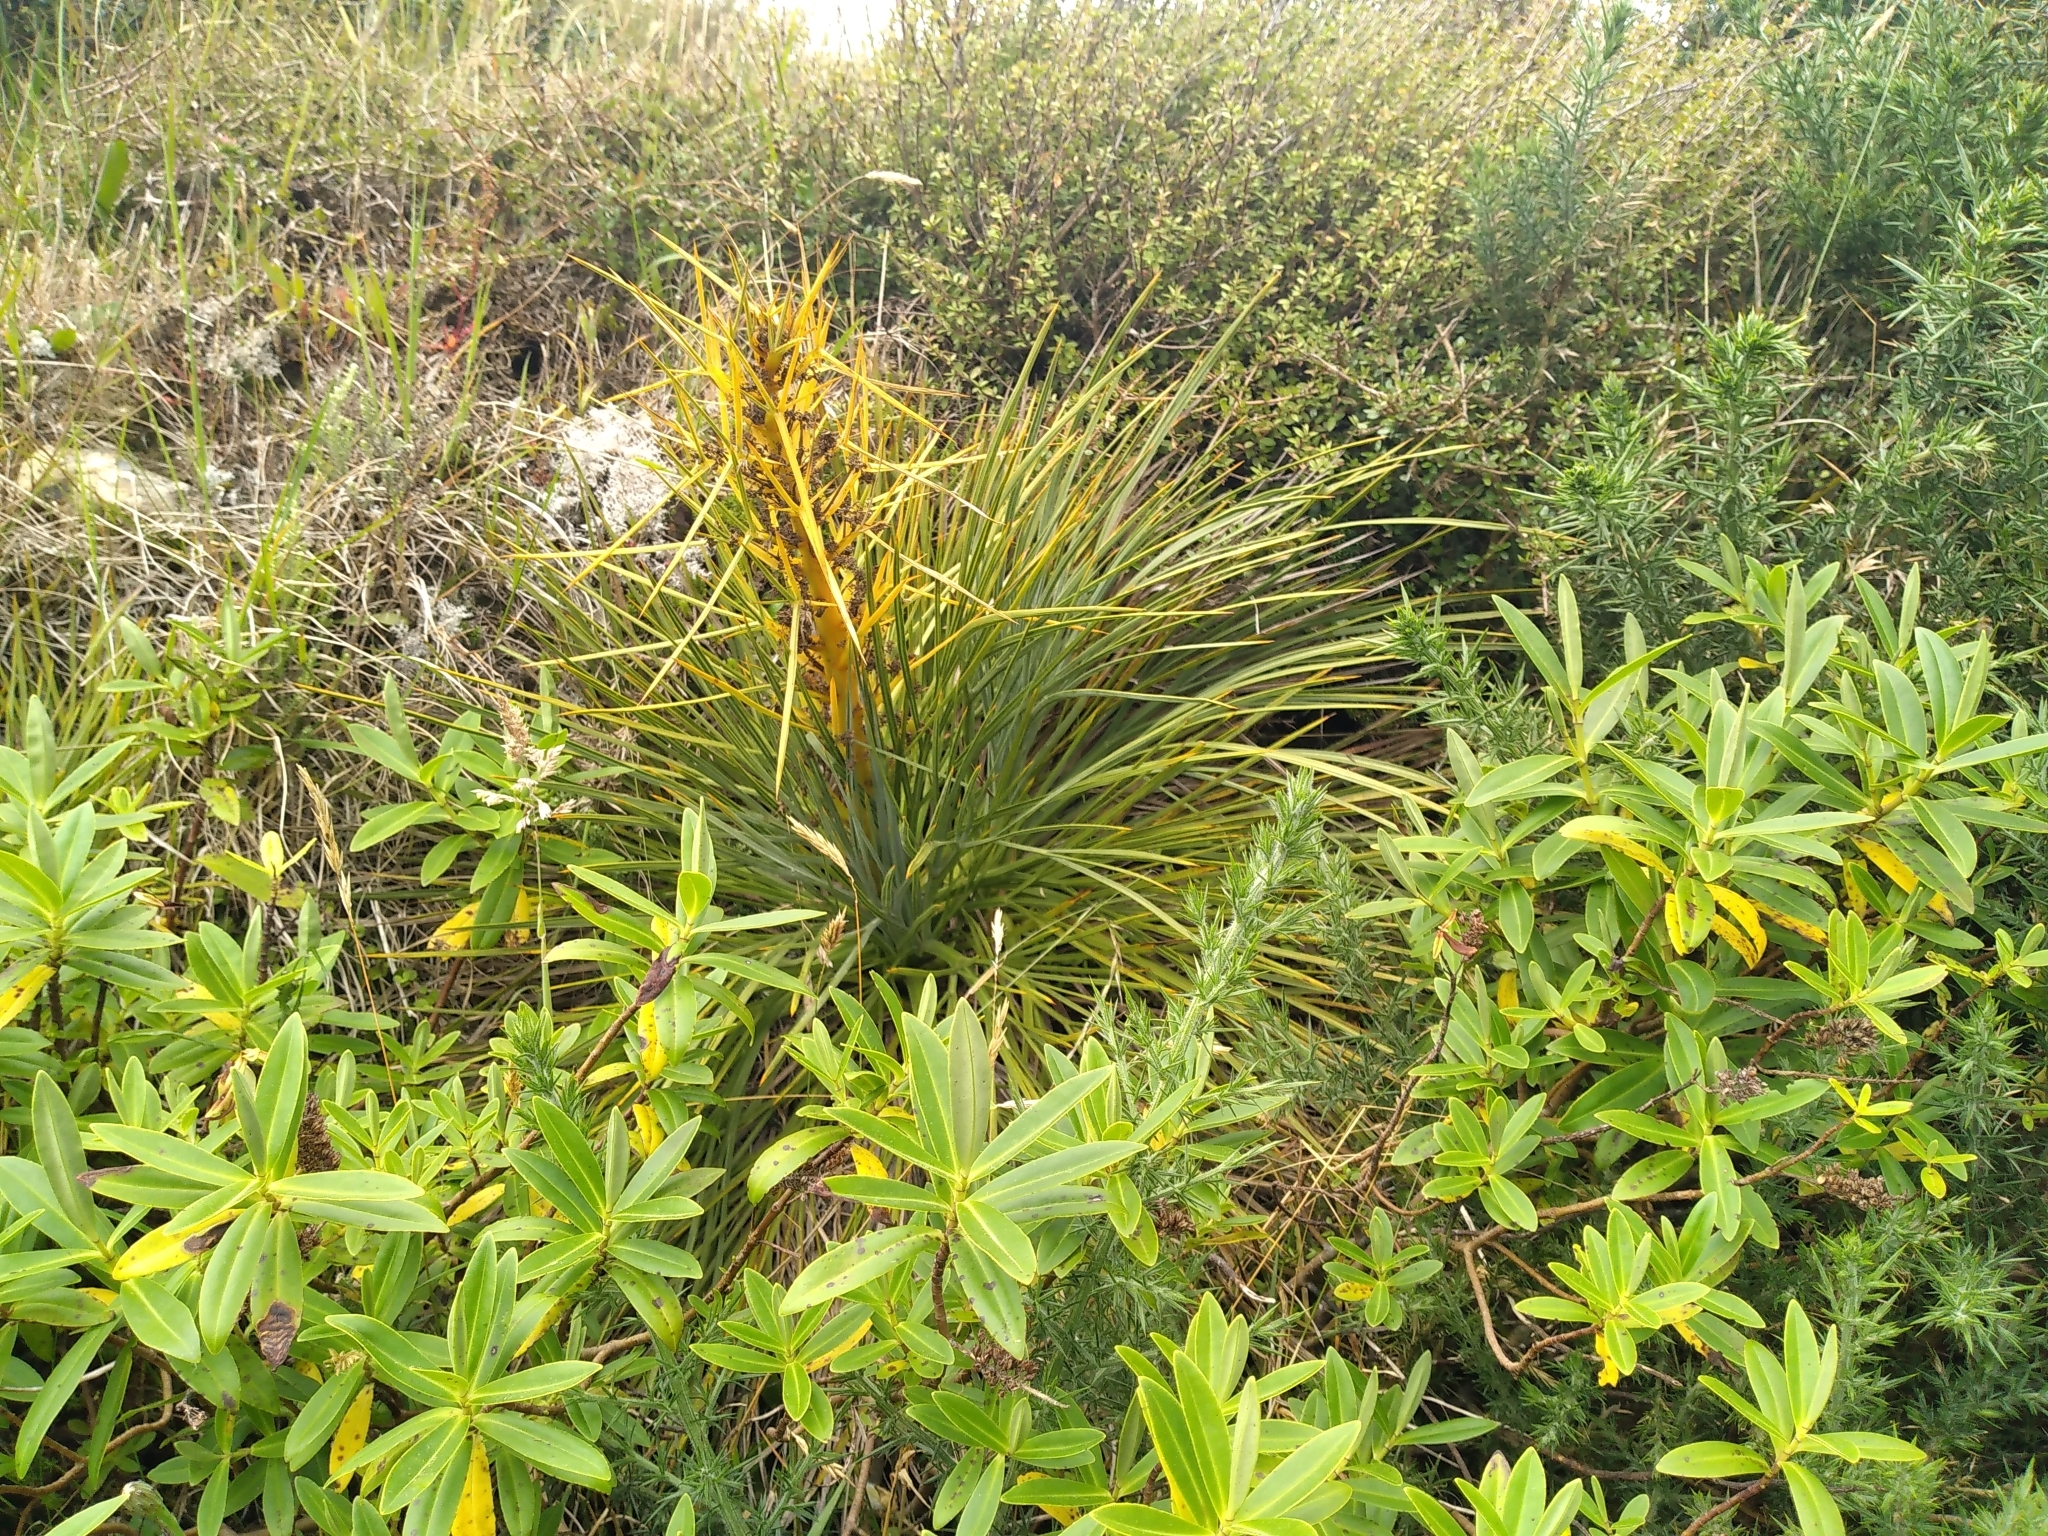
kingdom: Plantae
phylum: Tracheophyta
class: Magnoliopsida
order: Apiales
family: Apiaceae
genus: Aciphylla
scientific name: Aciphylla squarrosa
